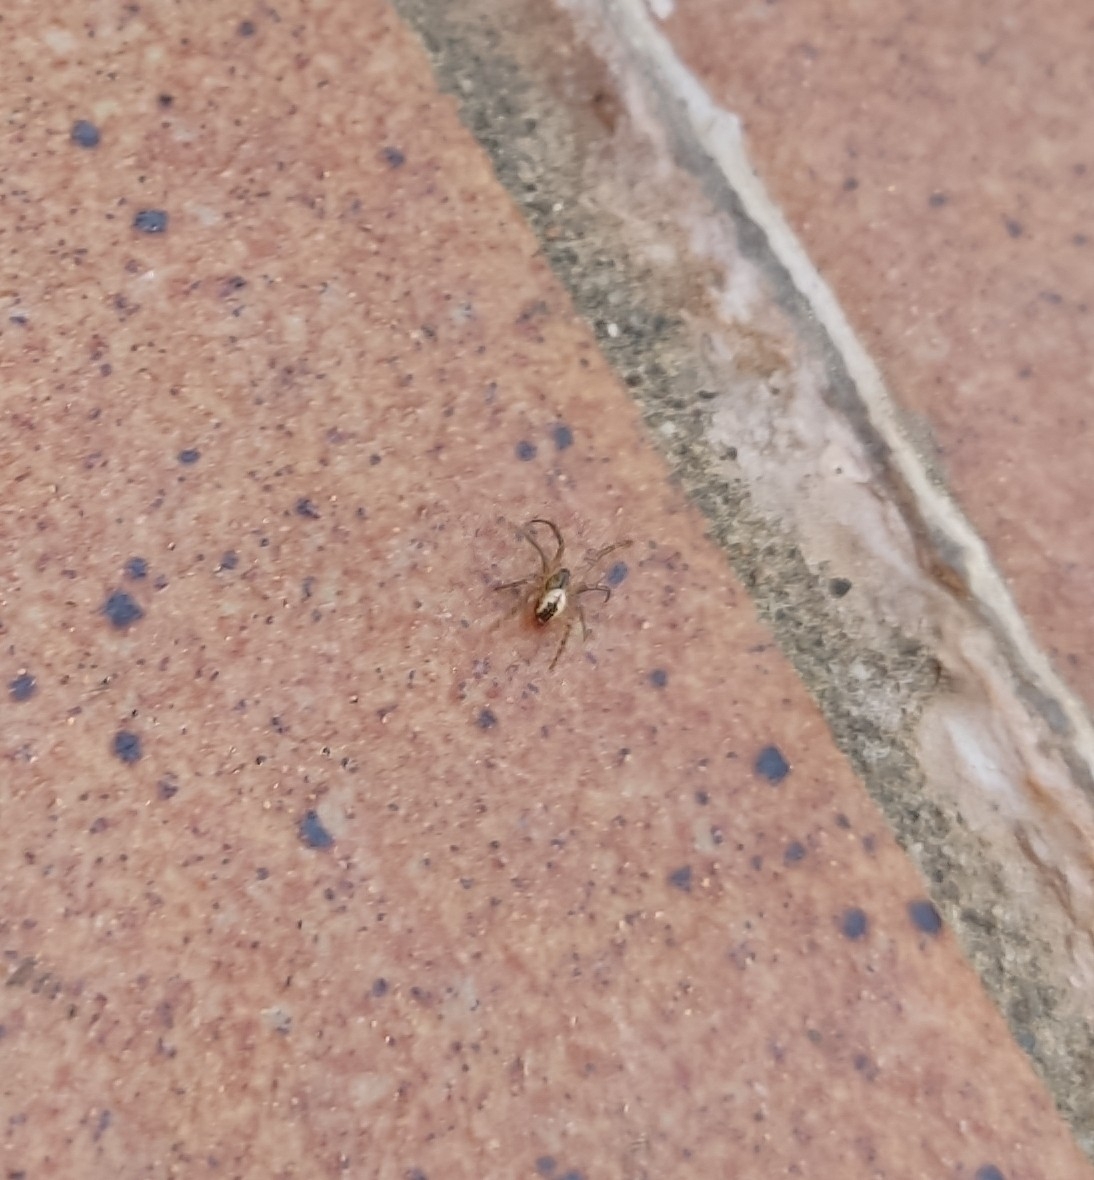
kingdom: Animalia
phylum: Arthropoda
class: Arachnida
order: Araneae
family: Araneidae
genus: Mangora
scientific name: Mangora acalypha
